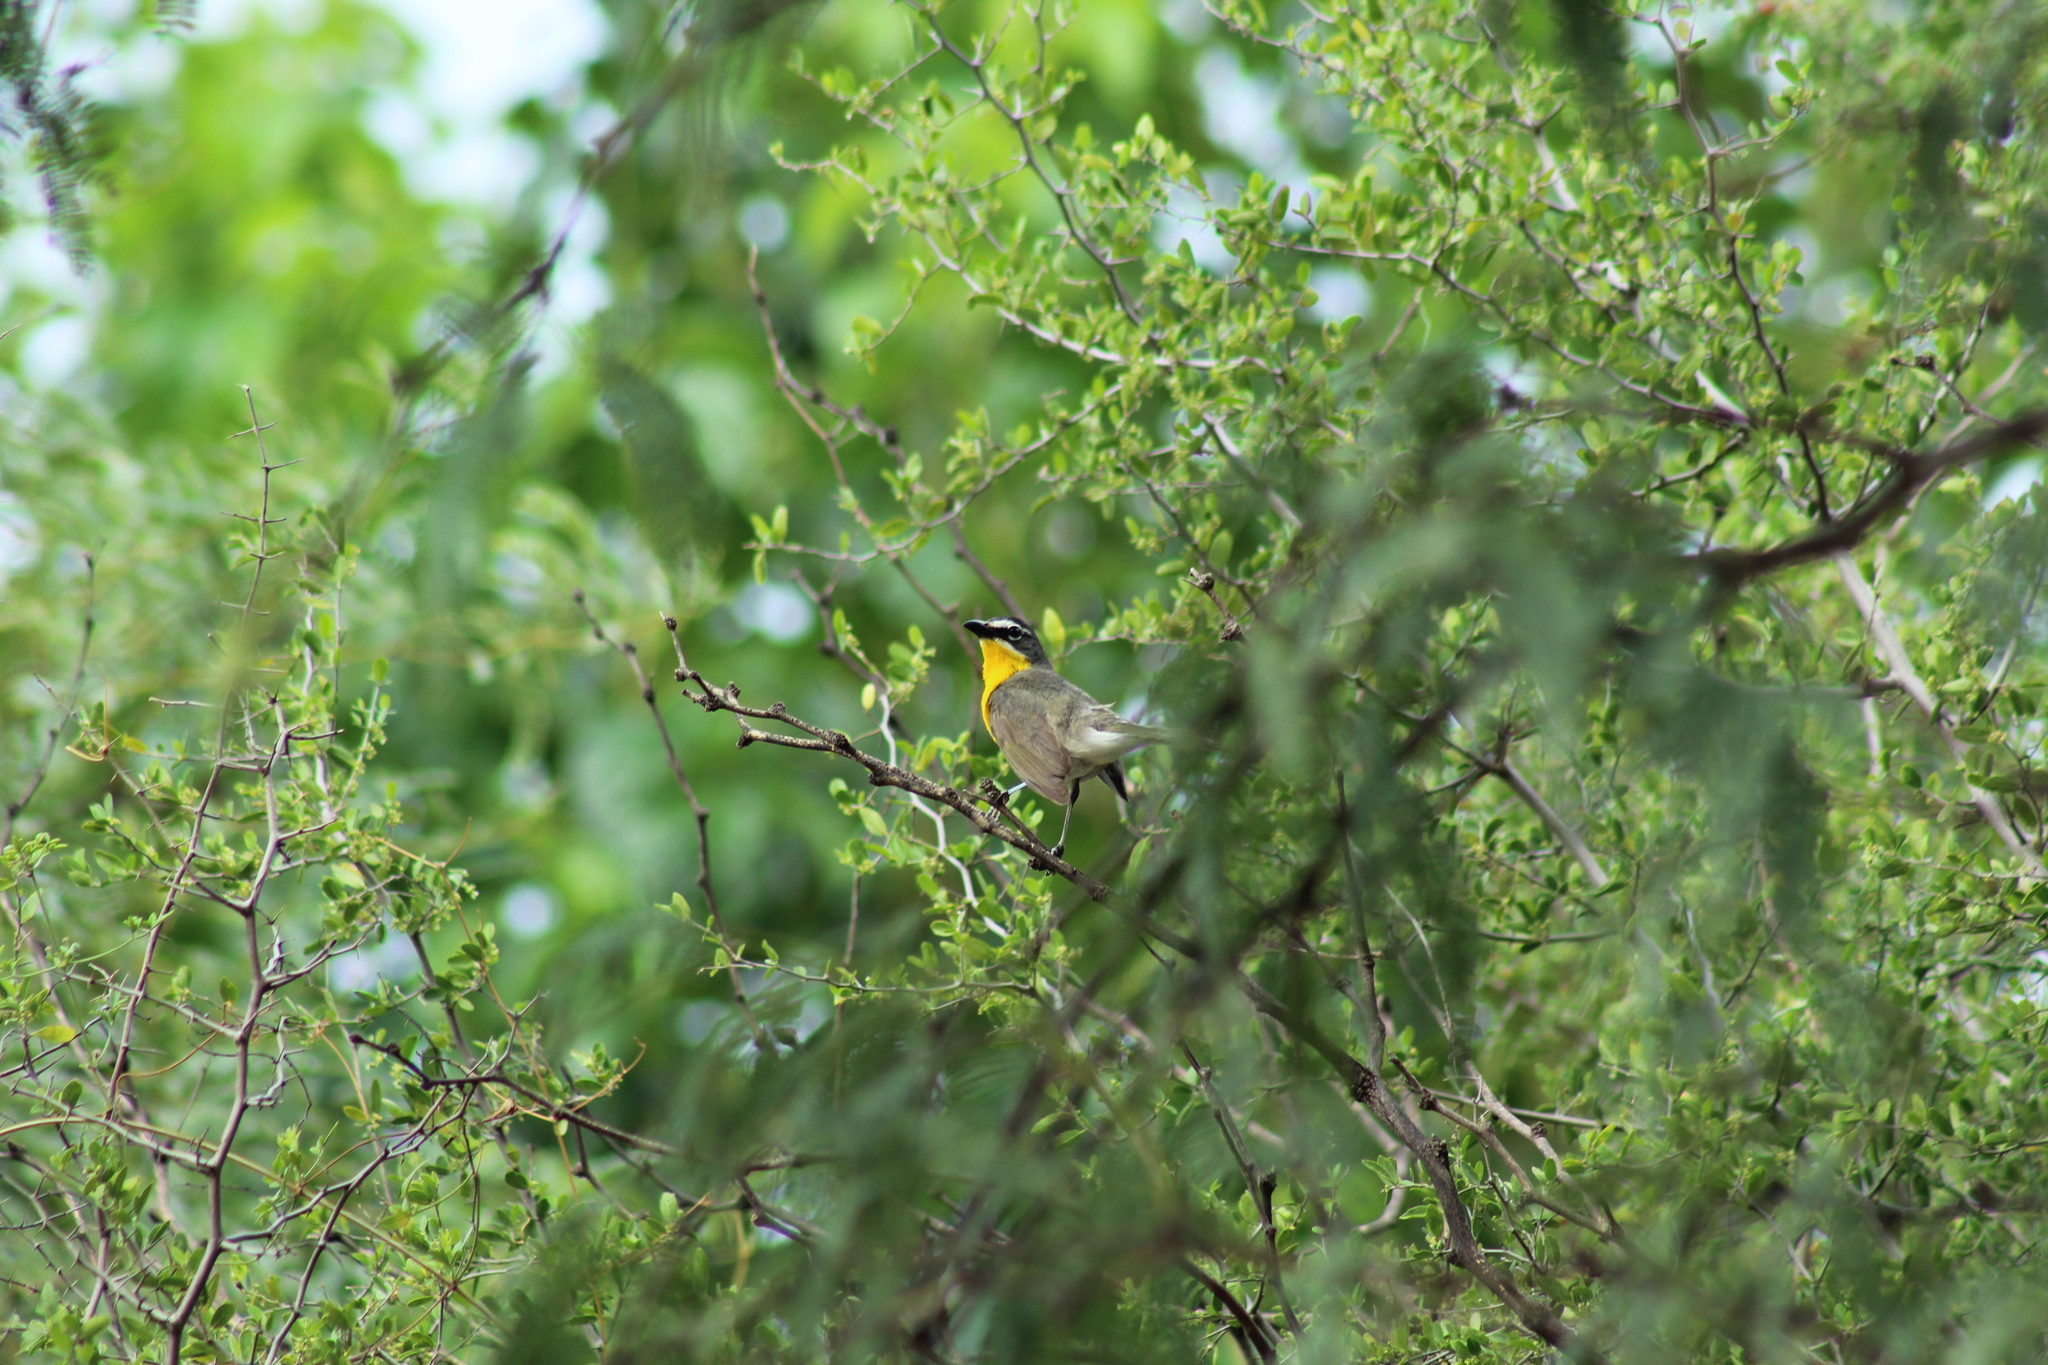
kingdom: Animalia
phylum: Chordata
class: Aves
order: Passeriformes
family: Parulidae
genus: Icteria
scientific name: Icteria virens
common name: Yellow-breasted chat
